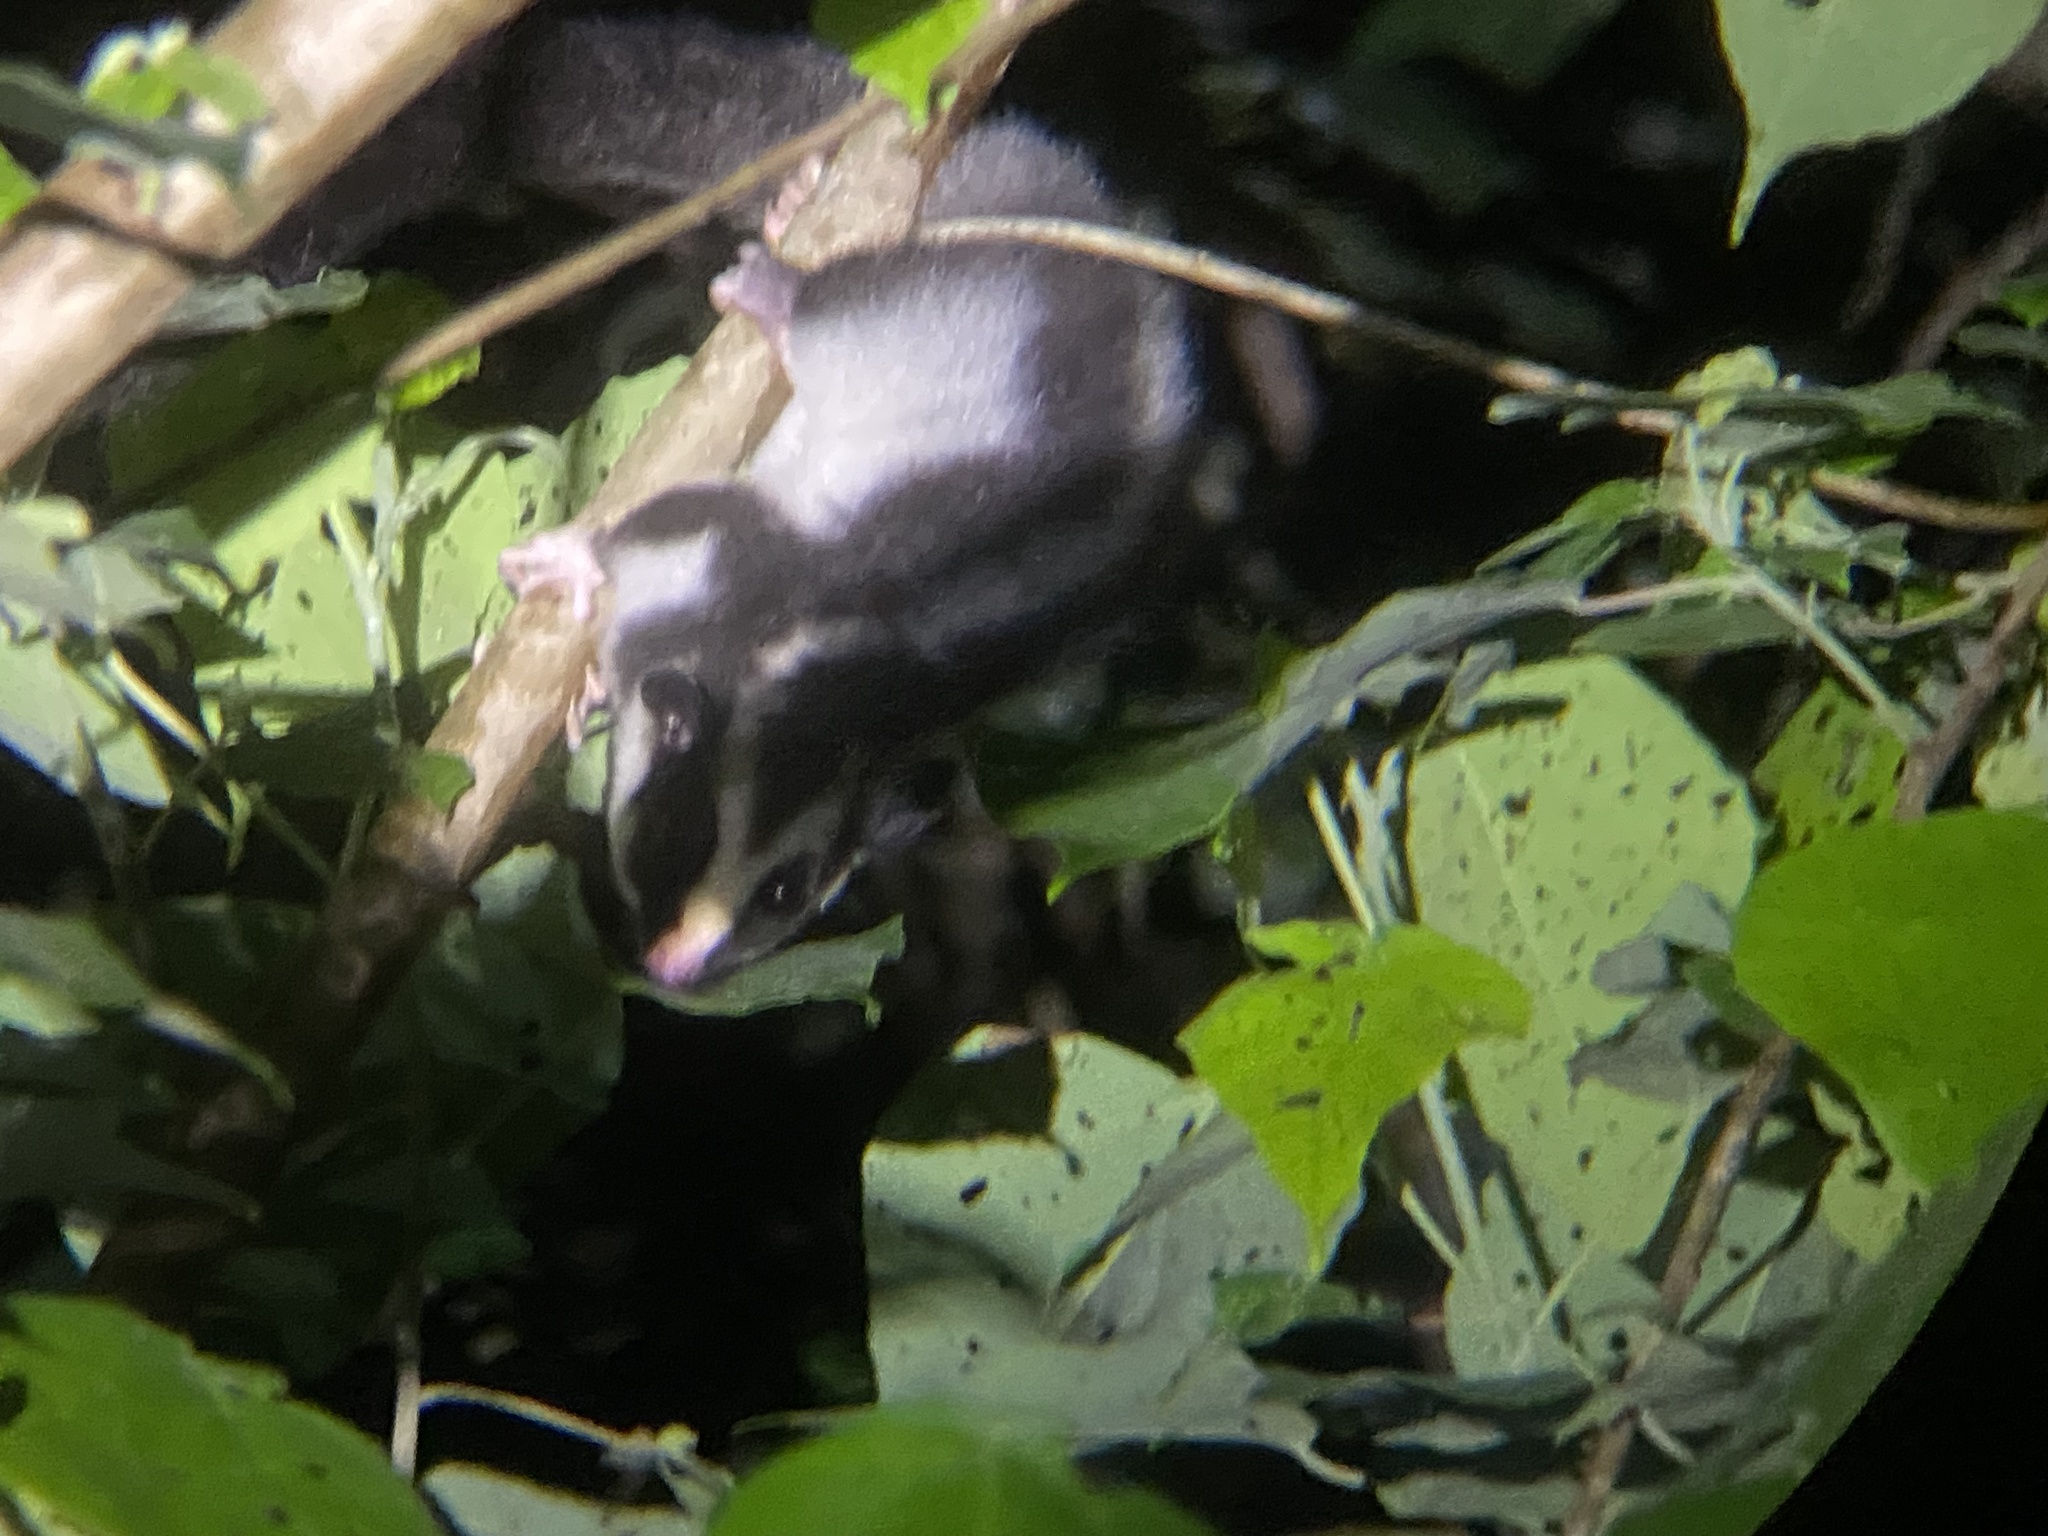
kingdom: Animalia
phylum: Chordata
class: Mammalia
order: Diprotodontia
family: Petauridae
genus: Dactylopsila
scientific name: Dactylopsila trivirgata
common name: Striped possum
